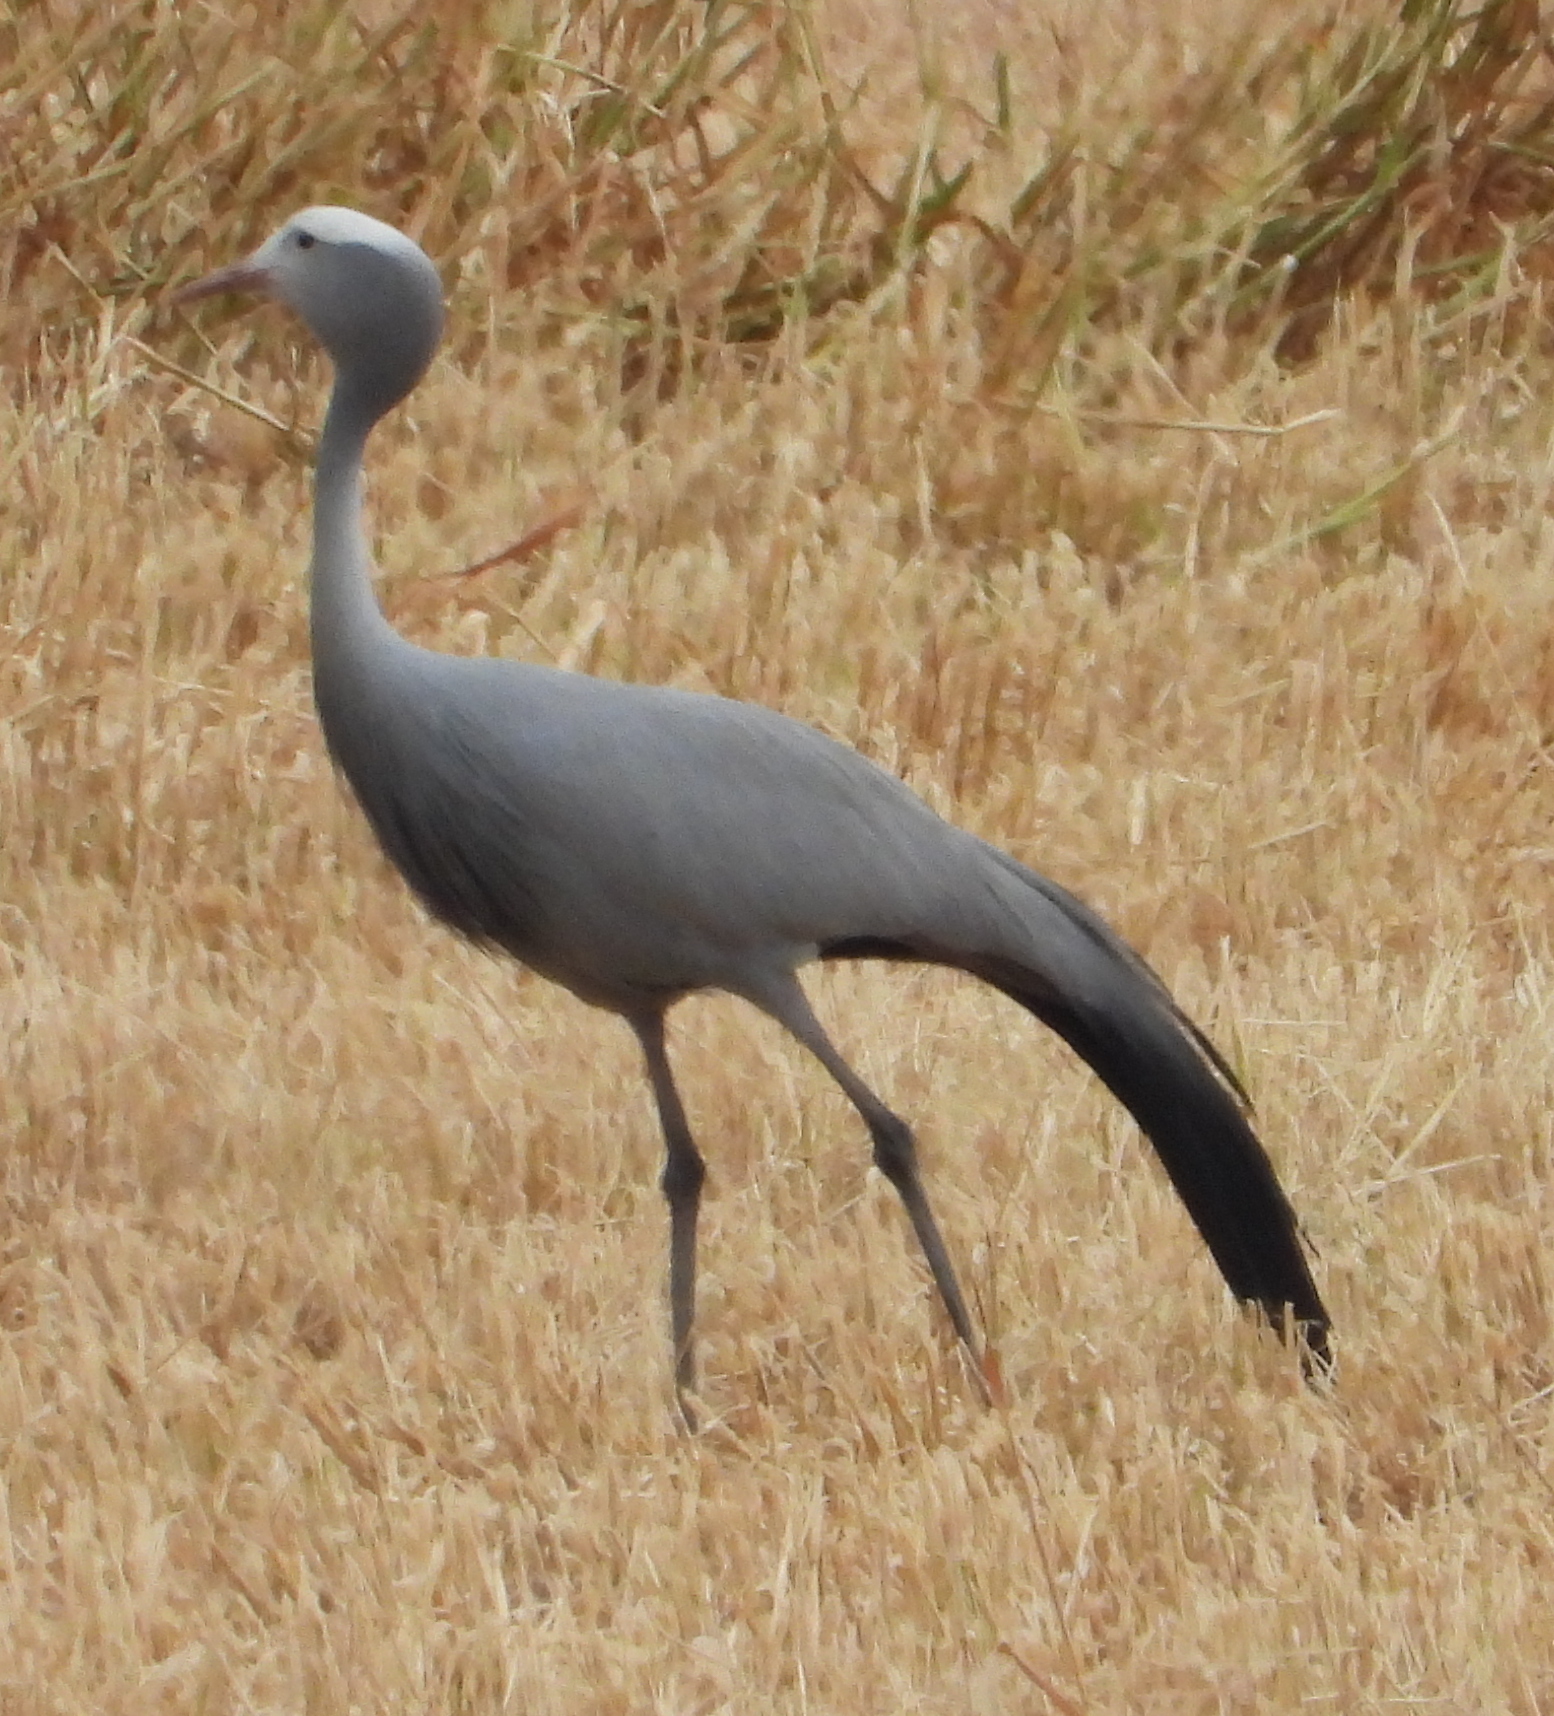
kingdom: Animalia
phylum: Chordata
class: Aves
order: Gruiformes
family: Gruidae
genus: Anthropoides
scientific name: Anthropoides paradiseus
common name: Blue crane
